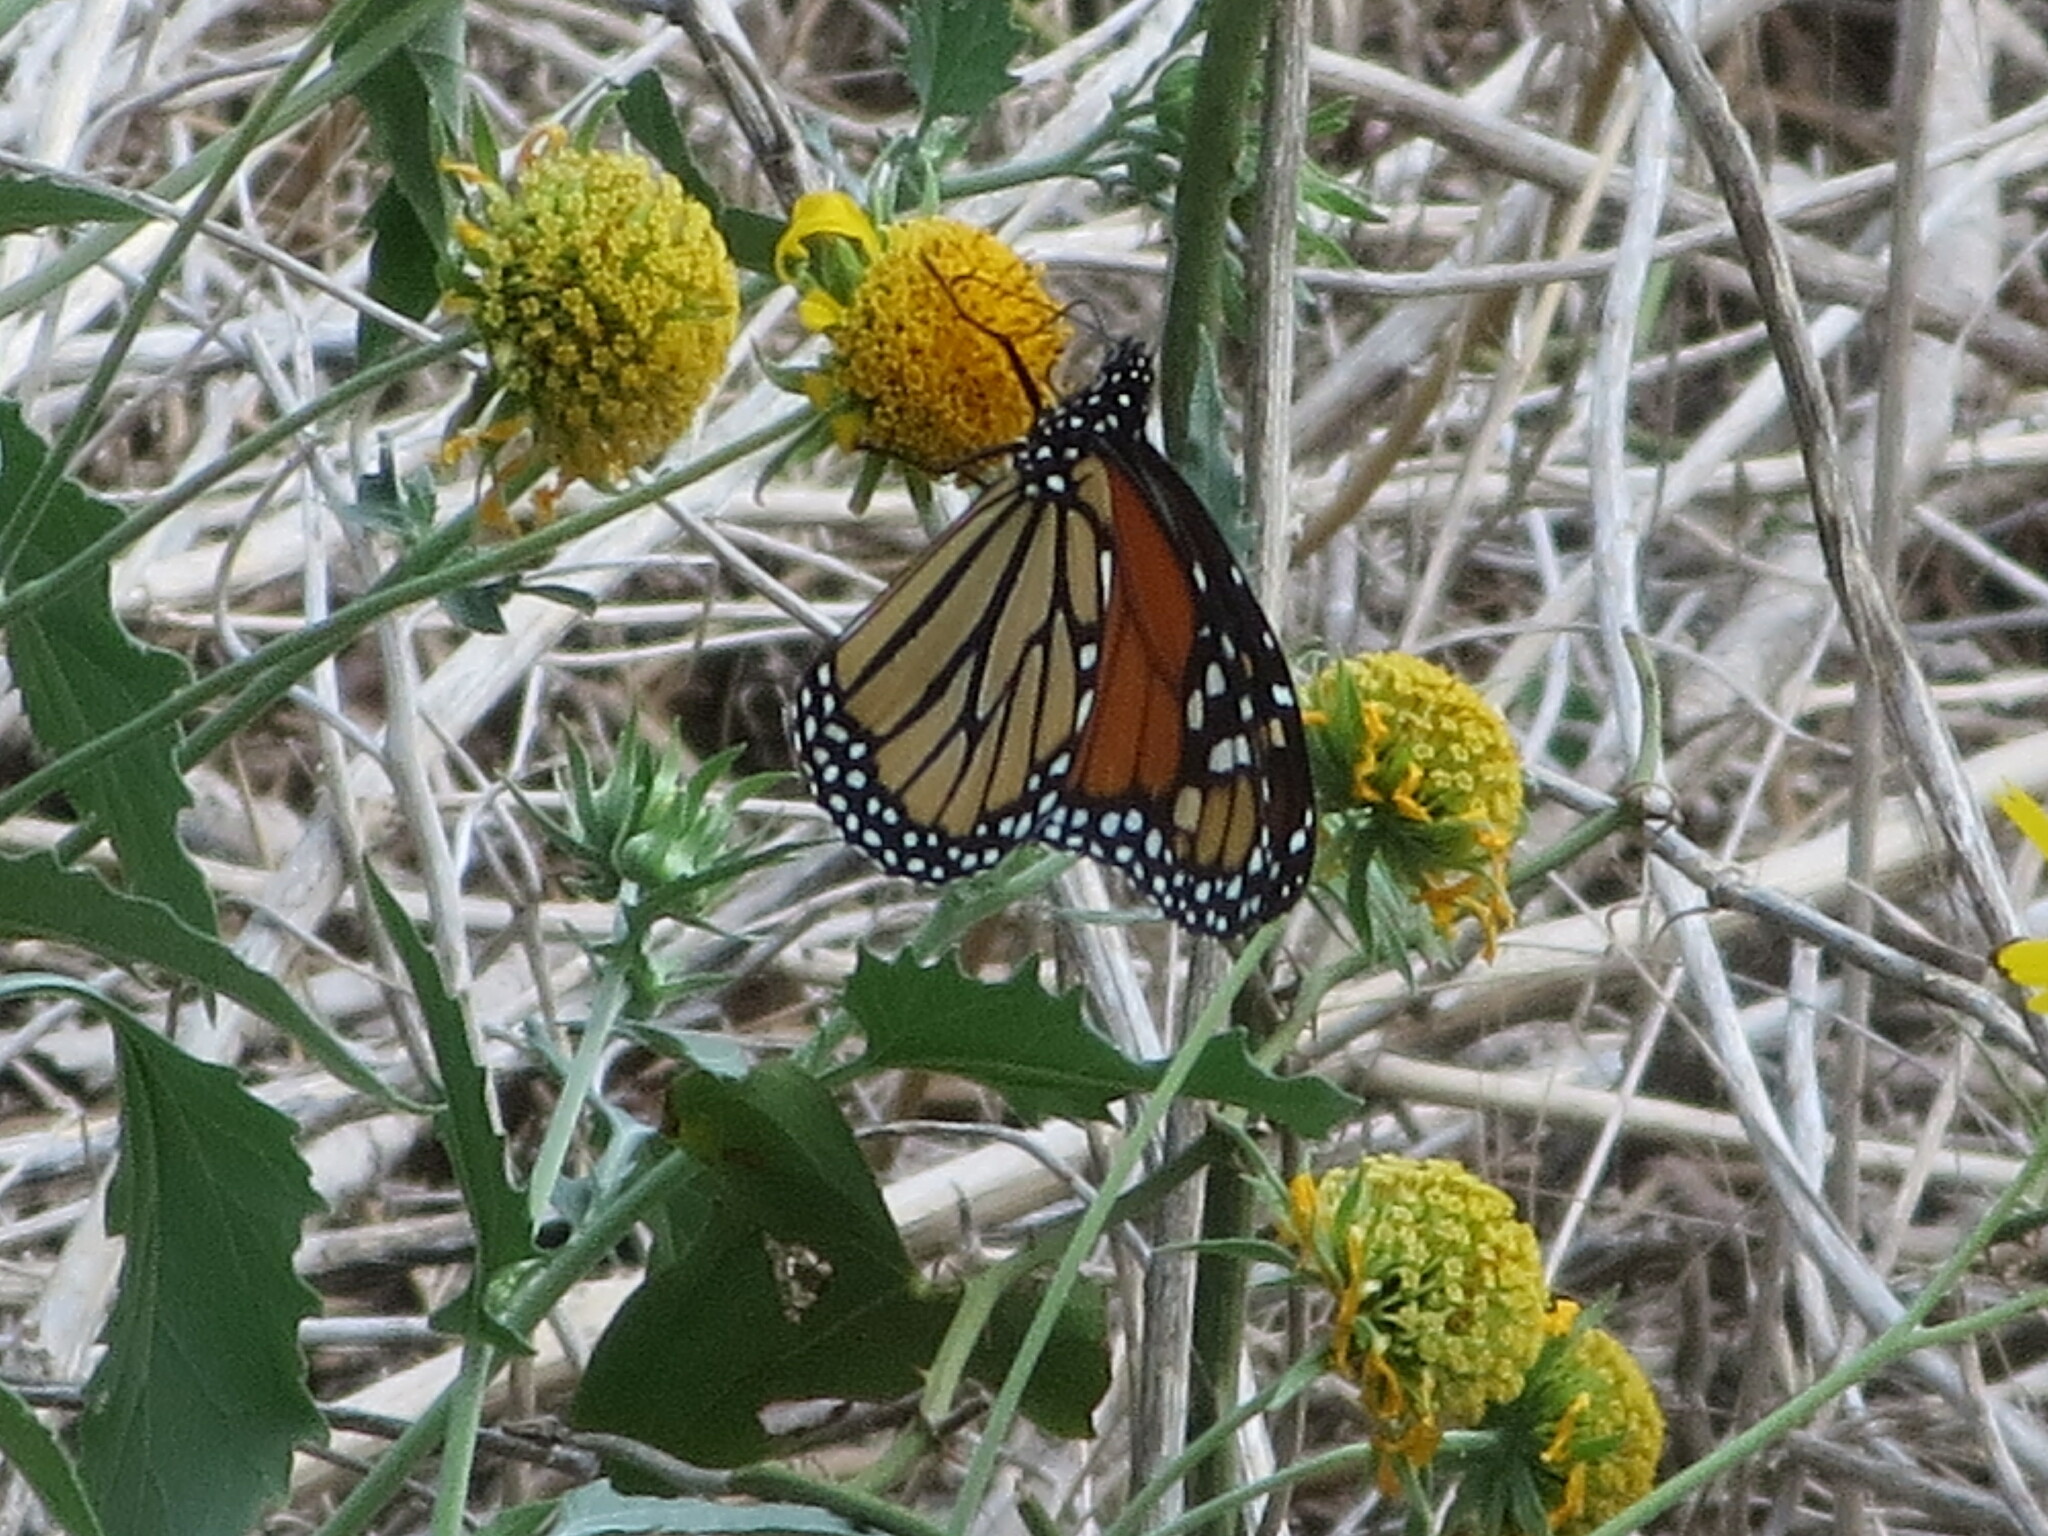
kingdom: Animalia
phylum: Arthropoda
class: Insecta
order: Lepidoptera
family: Nymphalidae
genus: Danaus
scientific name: Danaus plexippus
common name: Monarch
